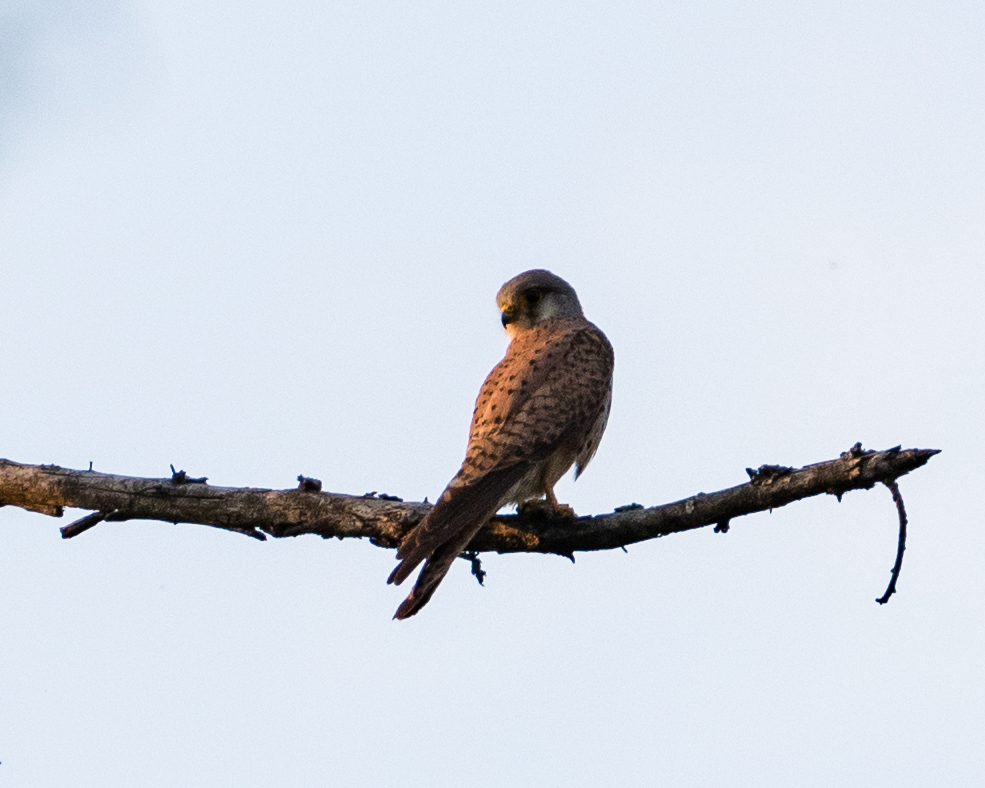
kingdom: Animalia
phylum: Chordata
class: Aves
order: Falconiformes
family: Falconidae
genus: Falco
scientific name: Falco tinnunculus
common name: Common kestrel
